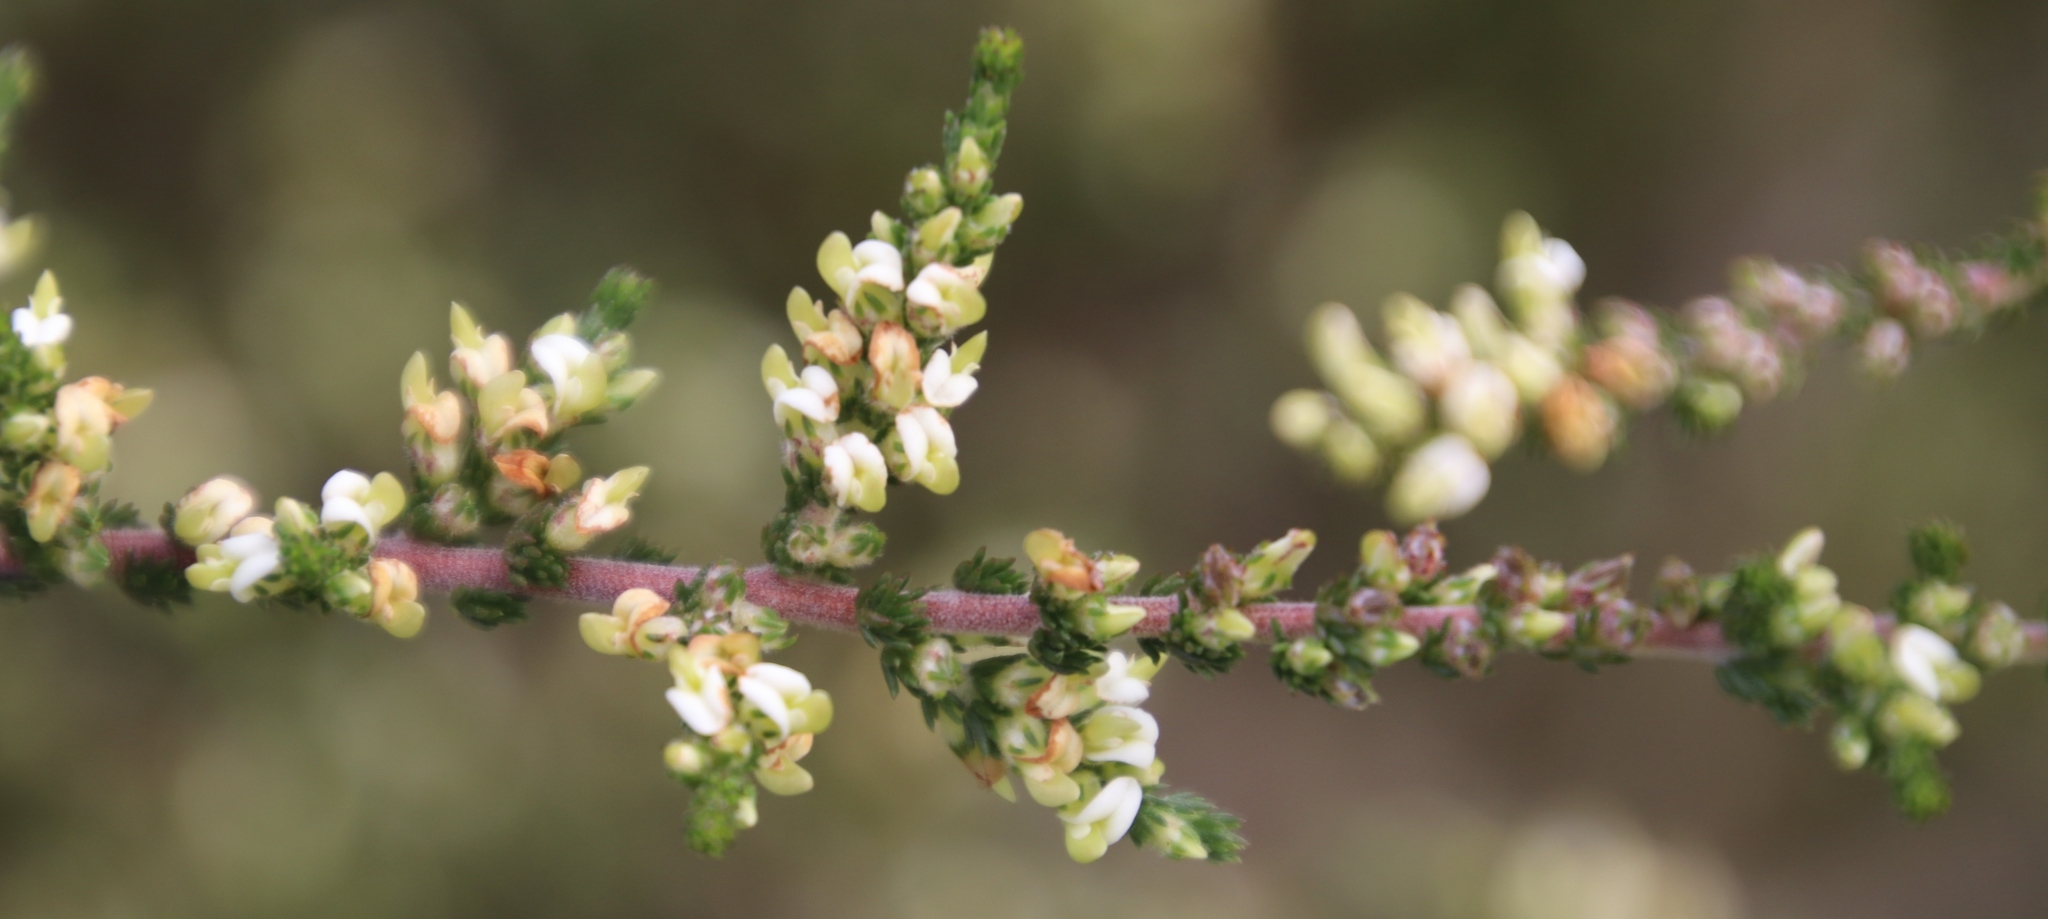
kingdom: Plantae
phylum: Tracheophyta
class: Magnoliopsida
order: Fabales
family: Fabaceae
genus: Aspalathus
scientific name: Aspalathus hispida
